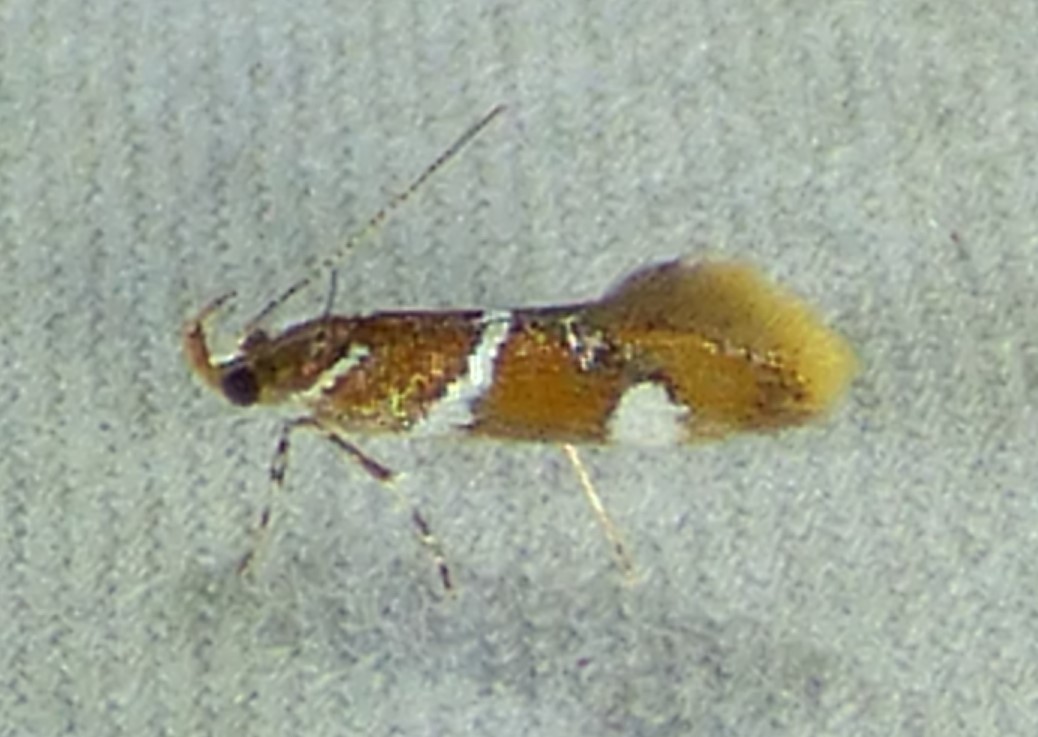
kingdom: Animalia
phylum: Arthropoda
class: Insecta
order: Lepidoptera
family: Oecophoridae
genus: Promalactis
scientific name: Promalactis suzukiella
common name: Moth
